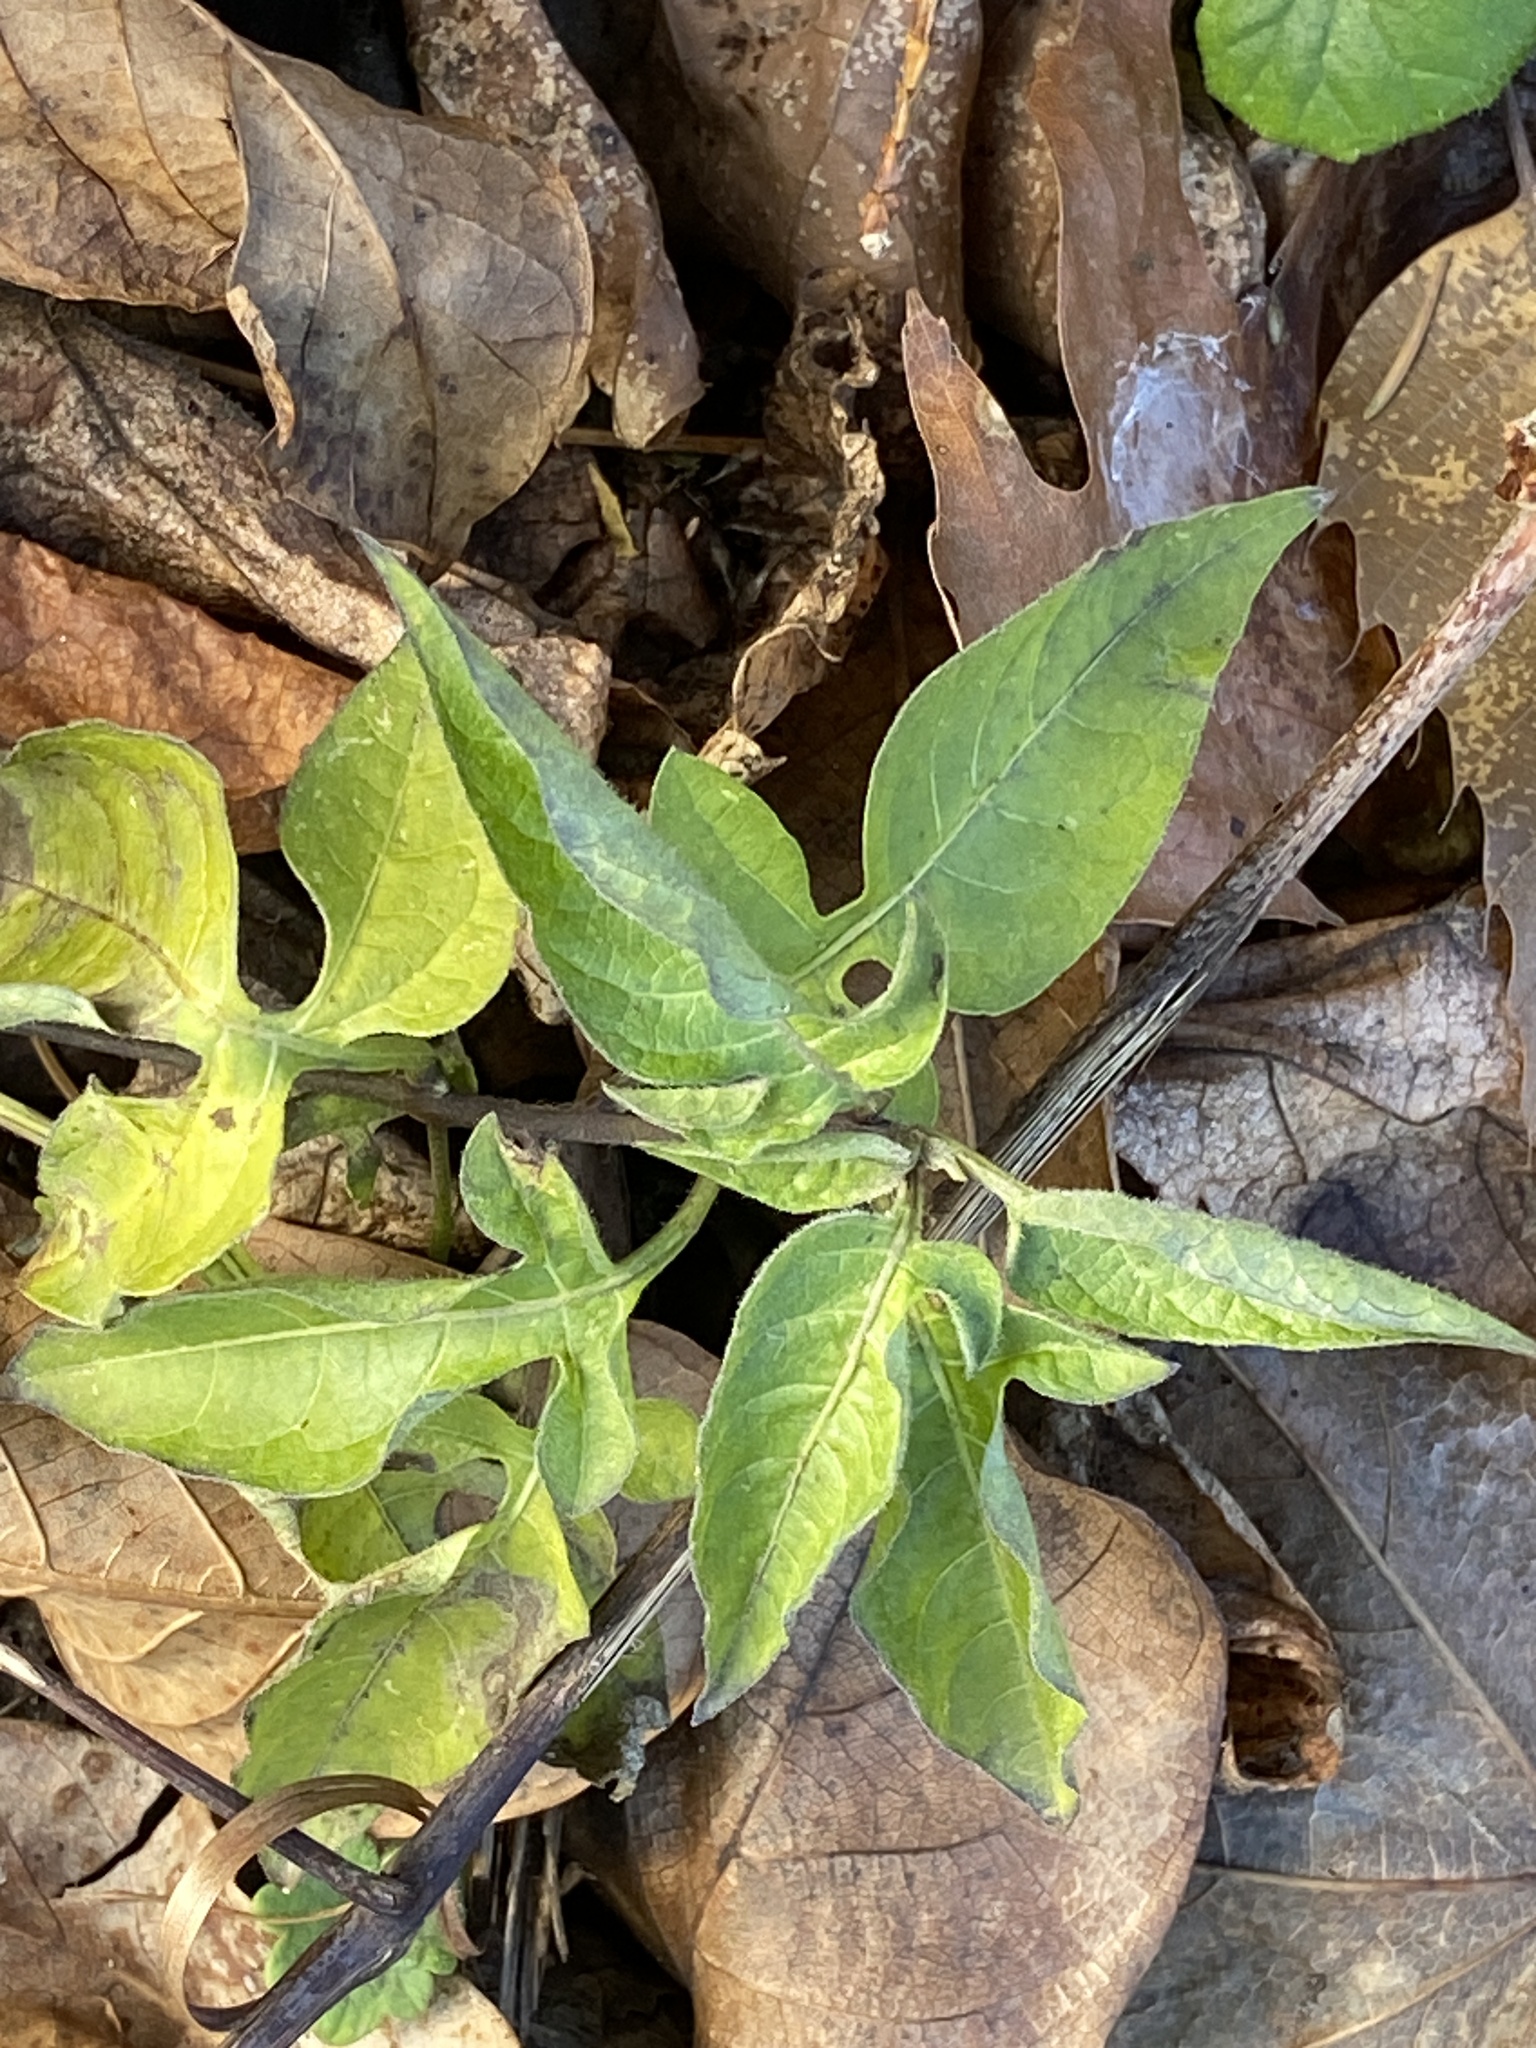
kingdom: Plantae
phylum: Tracheophyta
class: Magnoliopsida
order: Solanales
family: Solanaceae
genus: Solanum
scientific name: Solanum dulcamara
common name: Climbing nightshade
